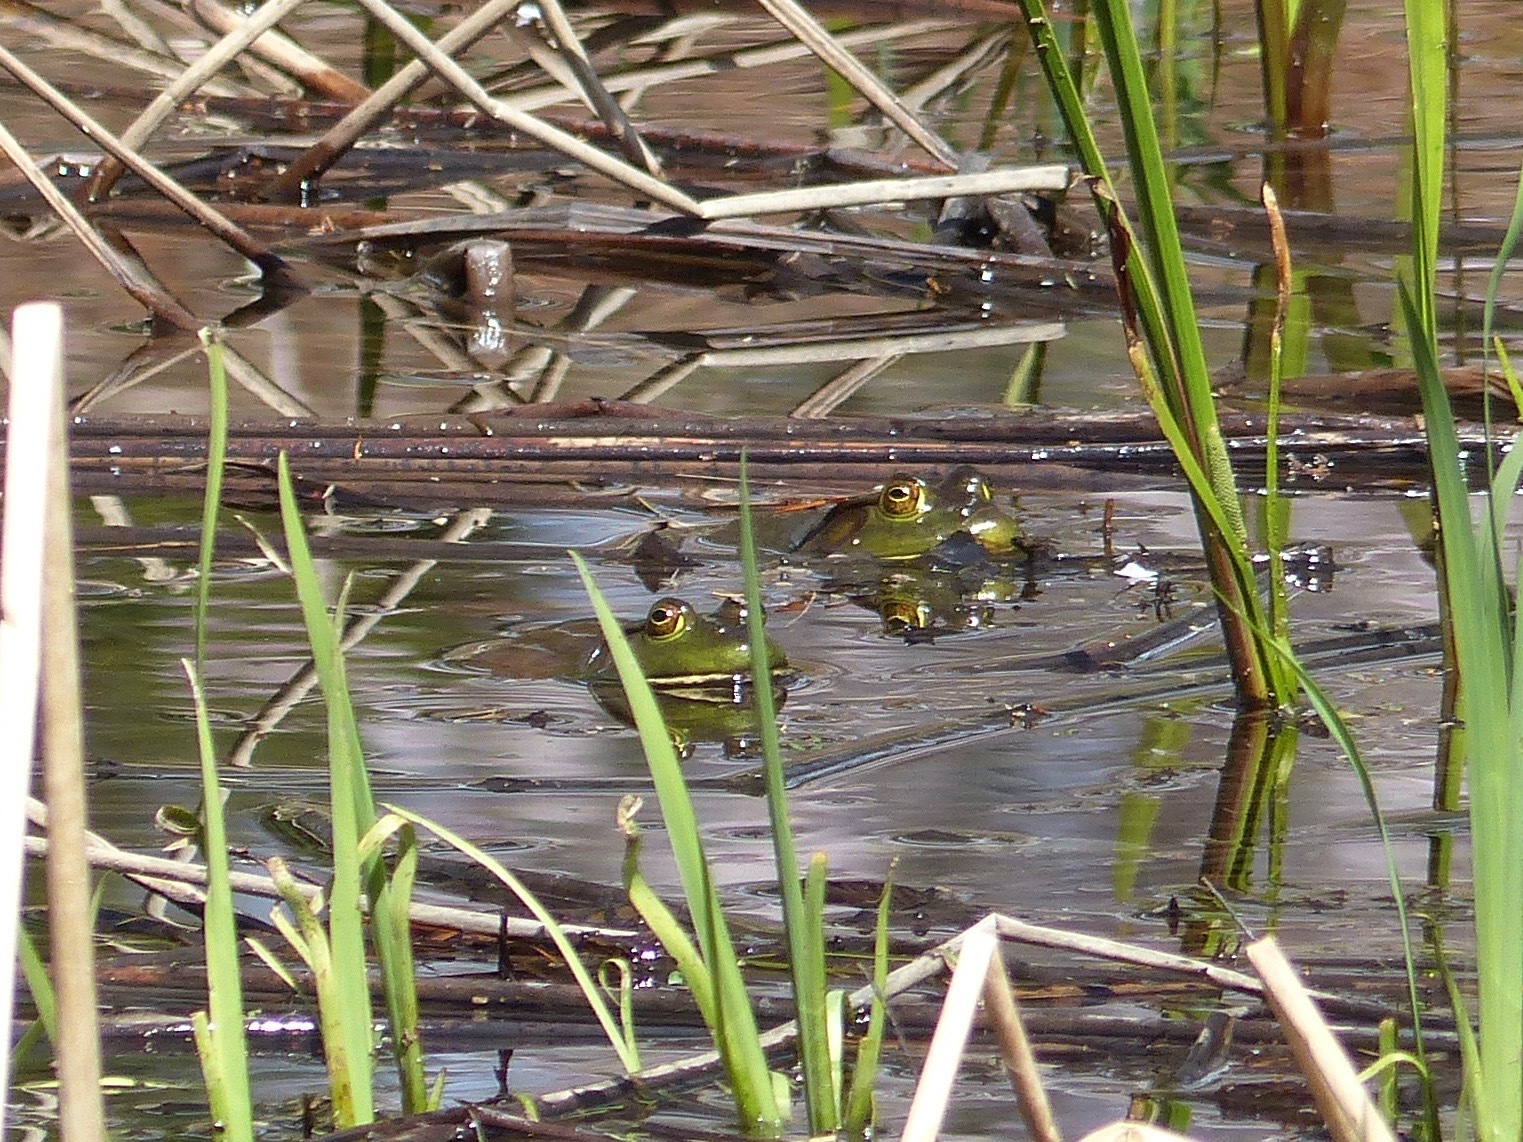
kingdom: Animalia
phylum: Chordata
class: Amphibia
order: Anura
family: Ranidae
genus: Lithobates
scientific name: Lithobates catesbeianus
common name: American bullfrog
